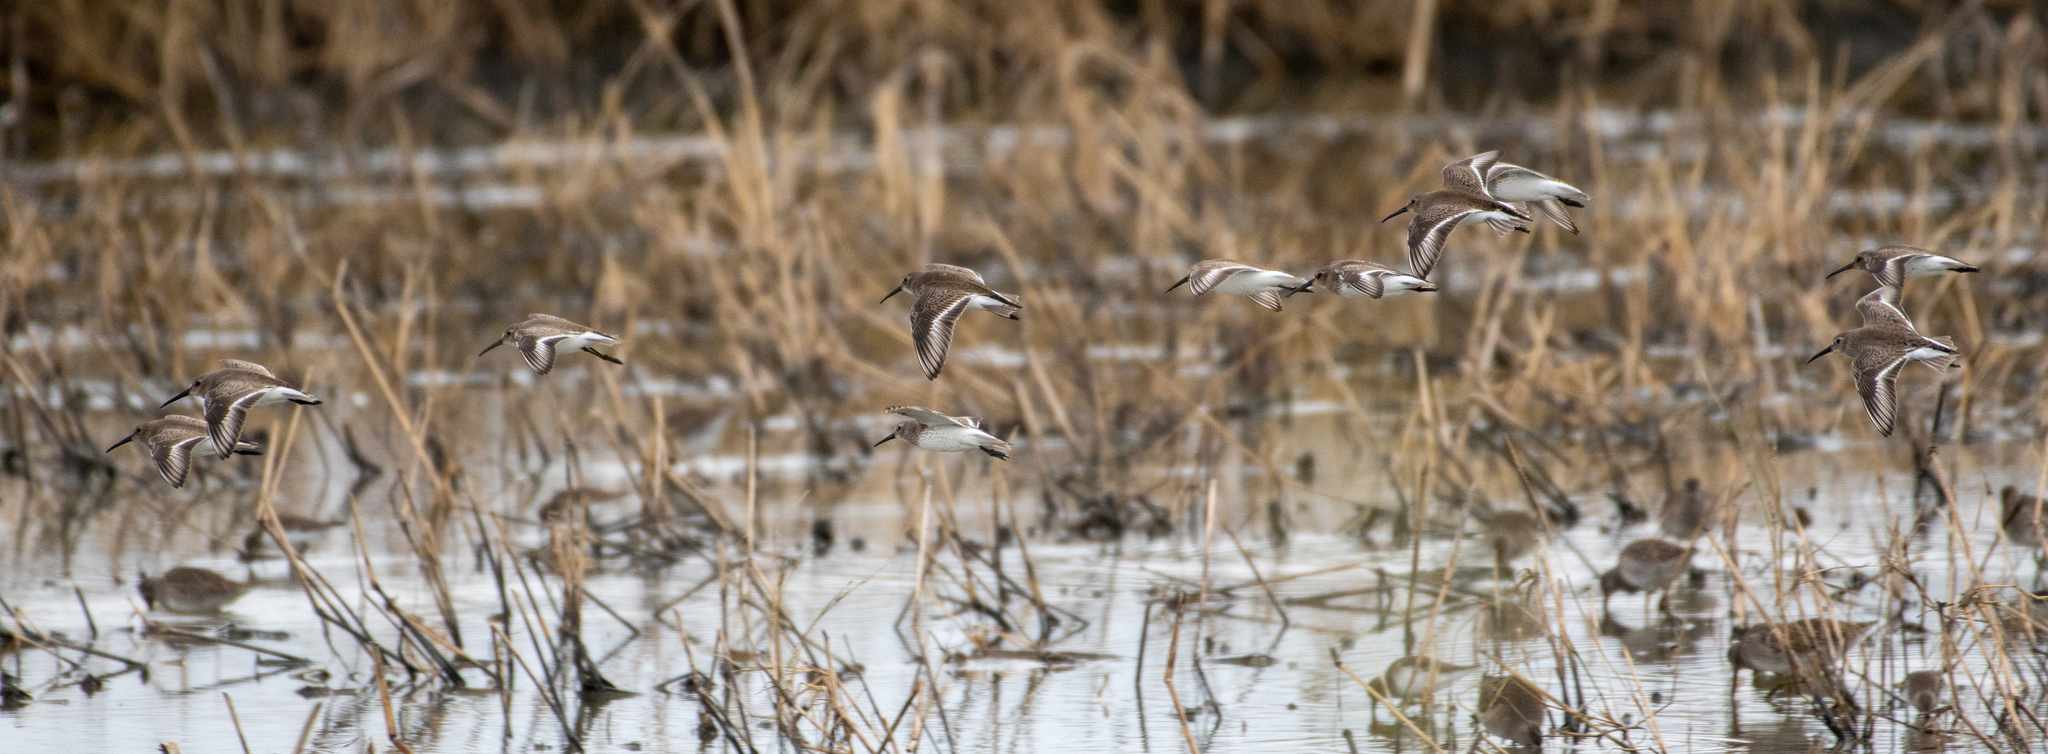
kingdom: Animalia
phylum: Chordata
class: Aves
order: Charadriiformes
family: Scolopacidae
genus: Calidris
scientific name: Calidris alpina
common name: Dunlin
